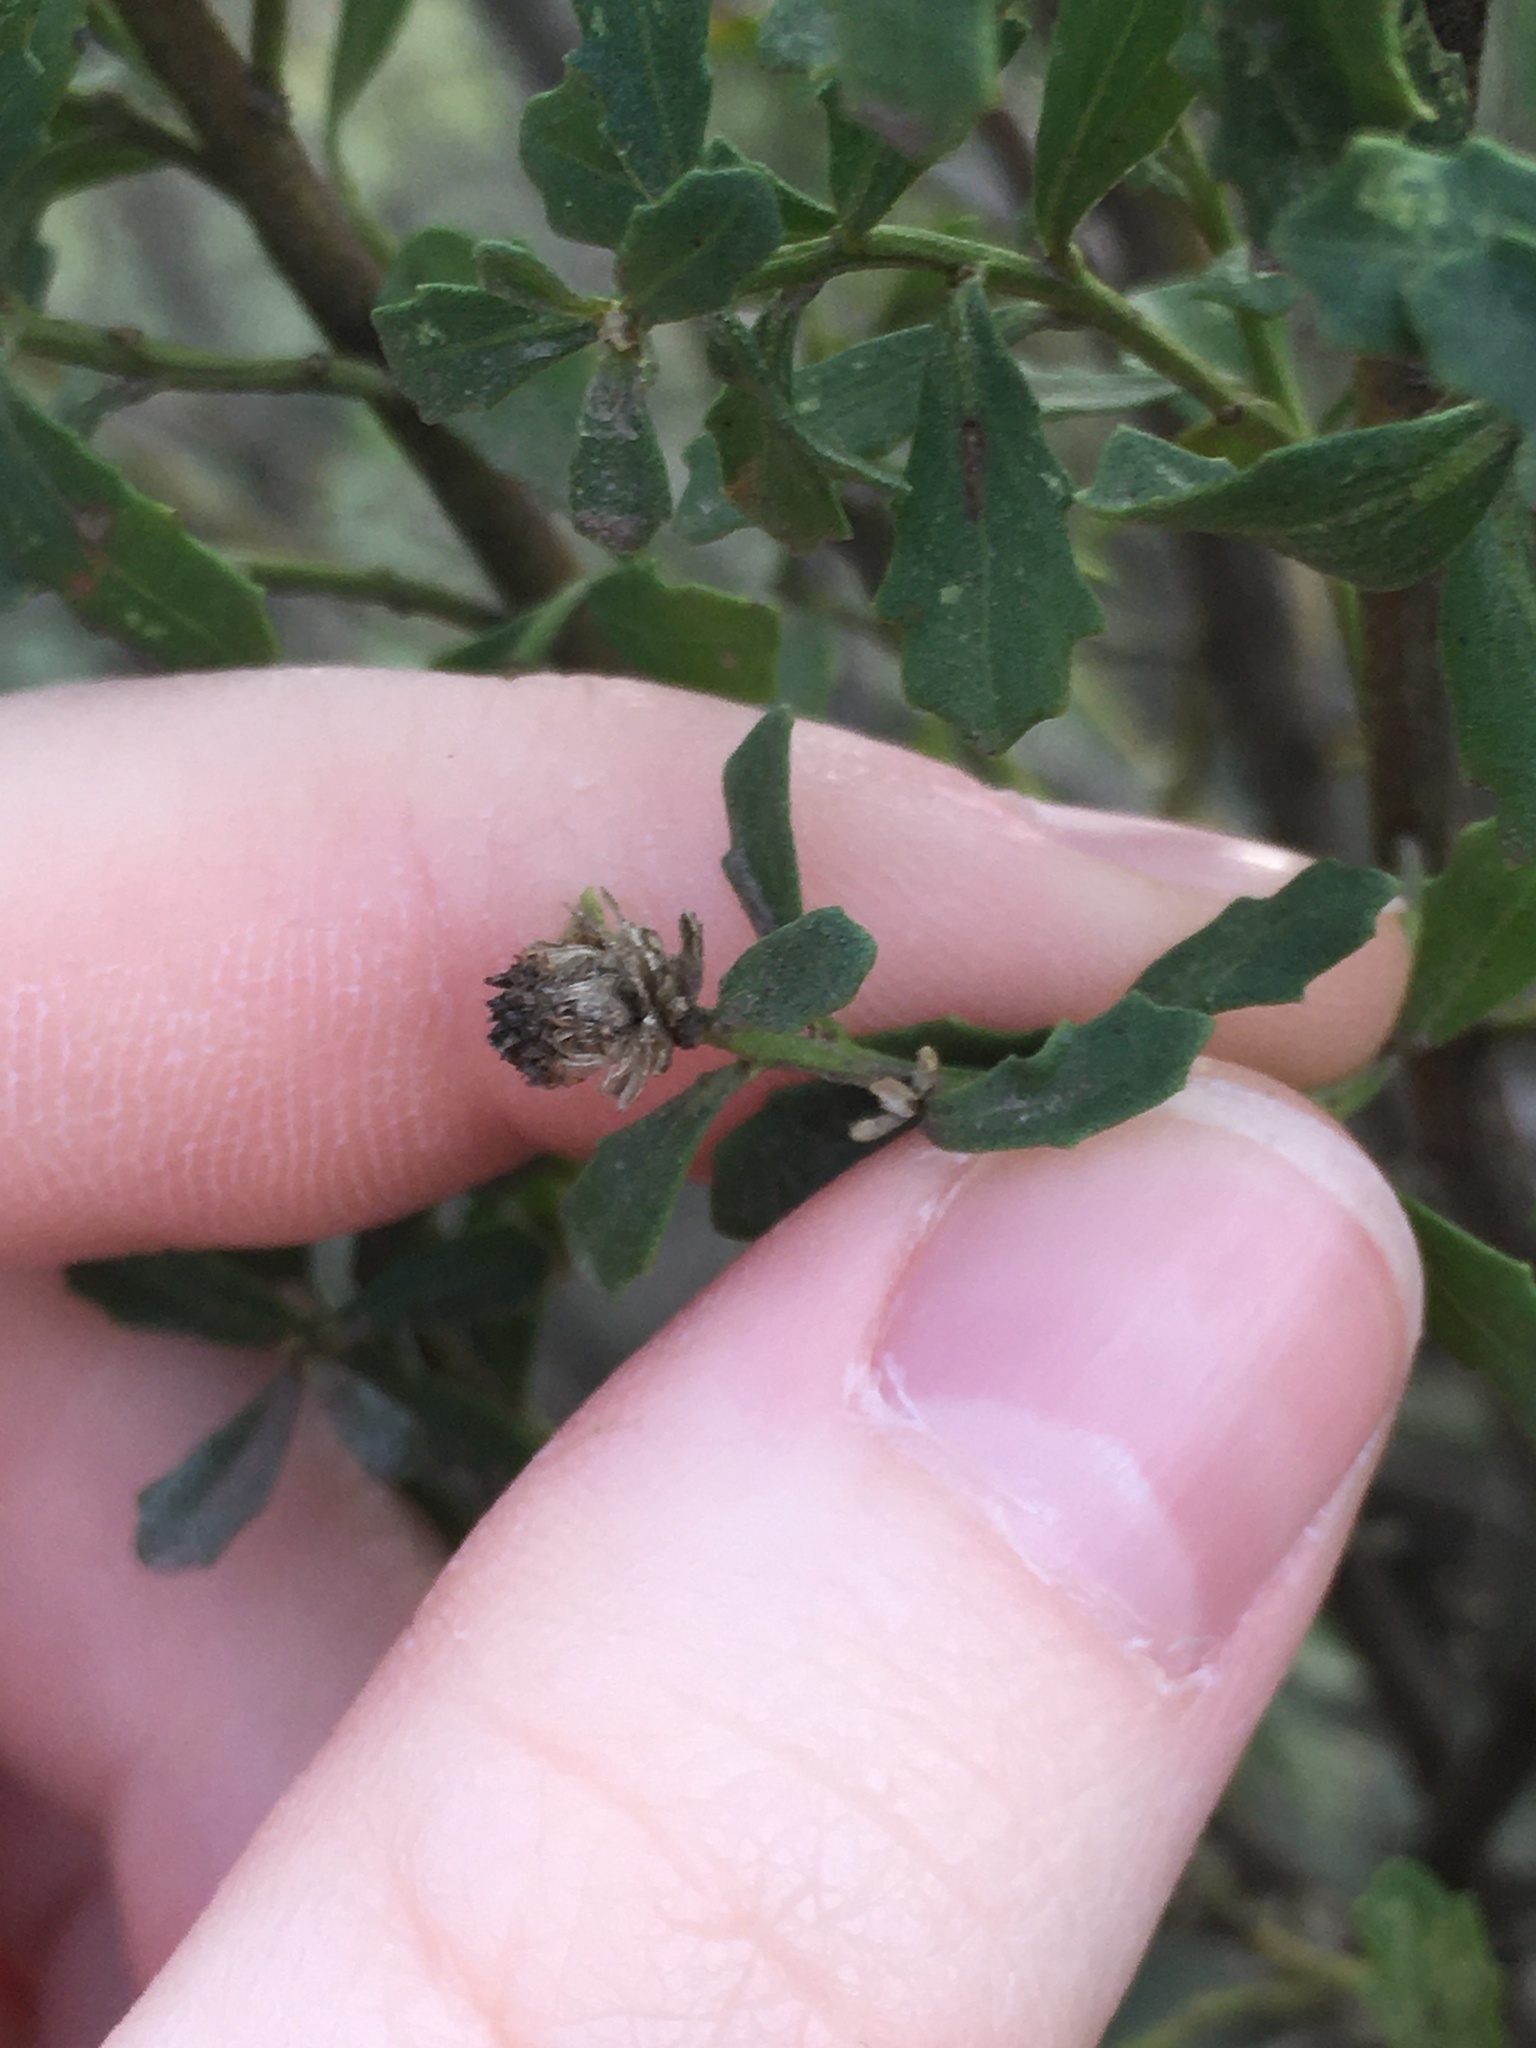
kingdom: Plantae
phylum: Tracheophyta
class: Magnoliopsida
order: Asterales
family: Asteraceae
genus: Baccharis
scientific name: Baccharis pilularis
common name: Coyotebrush
